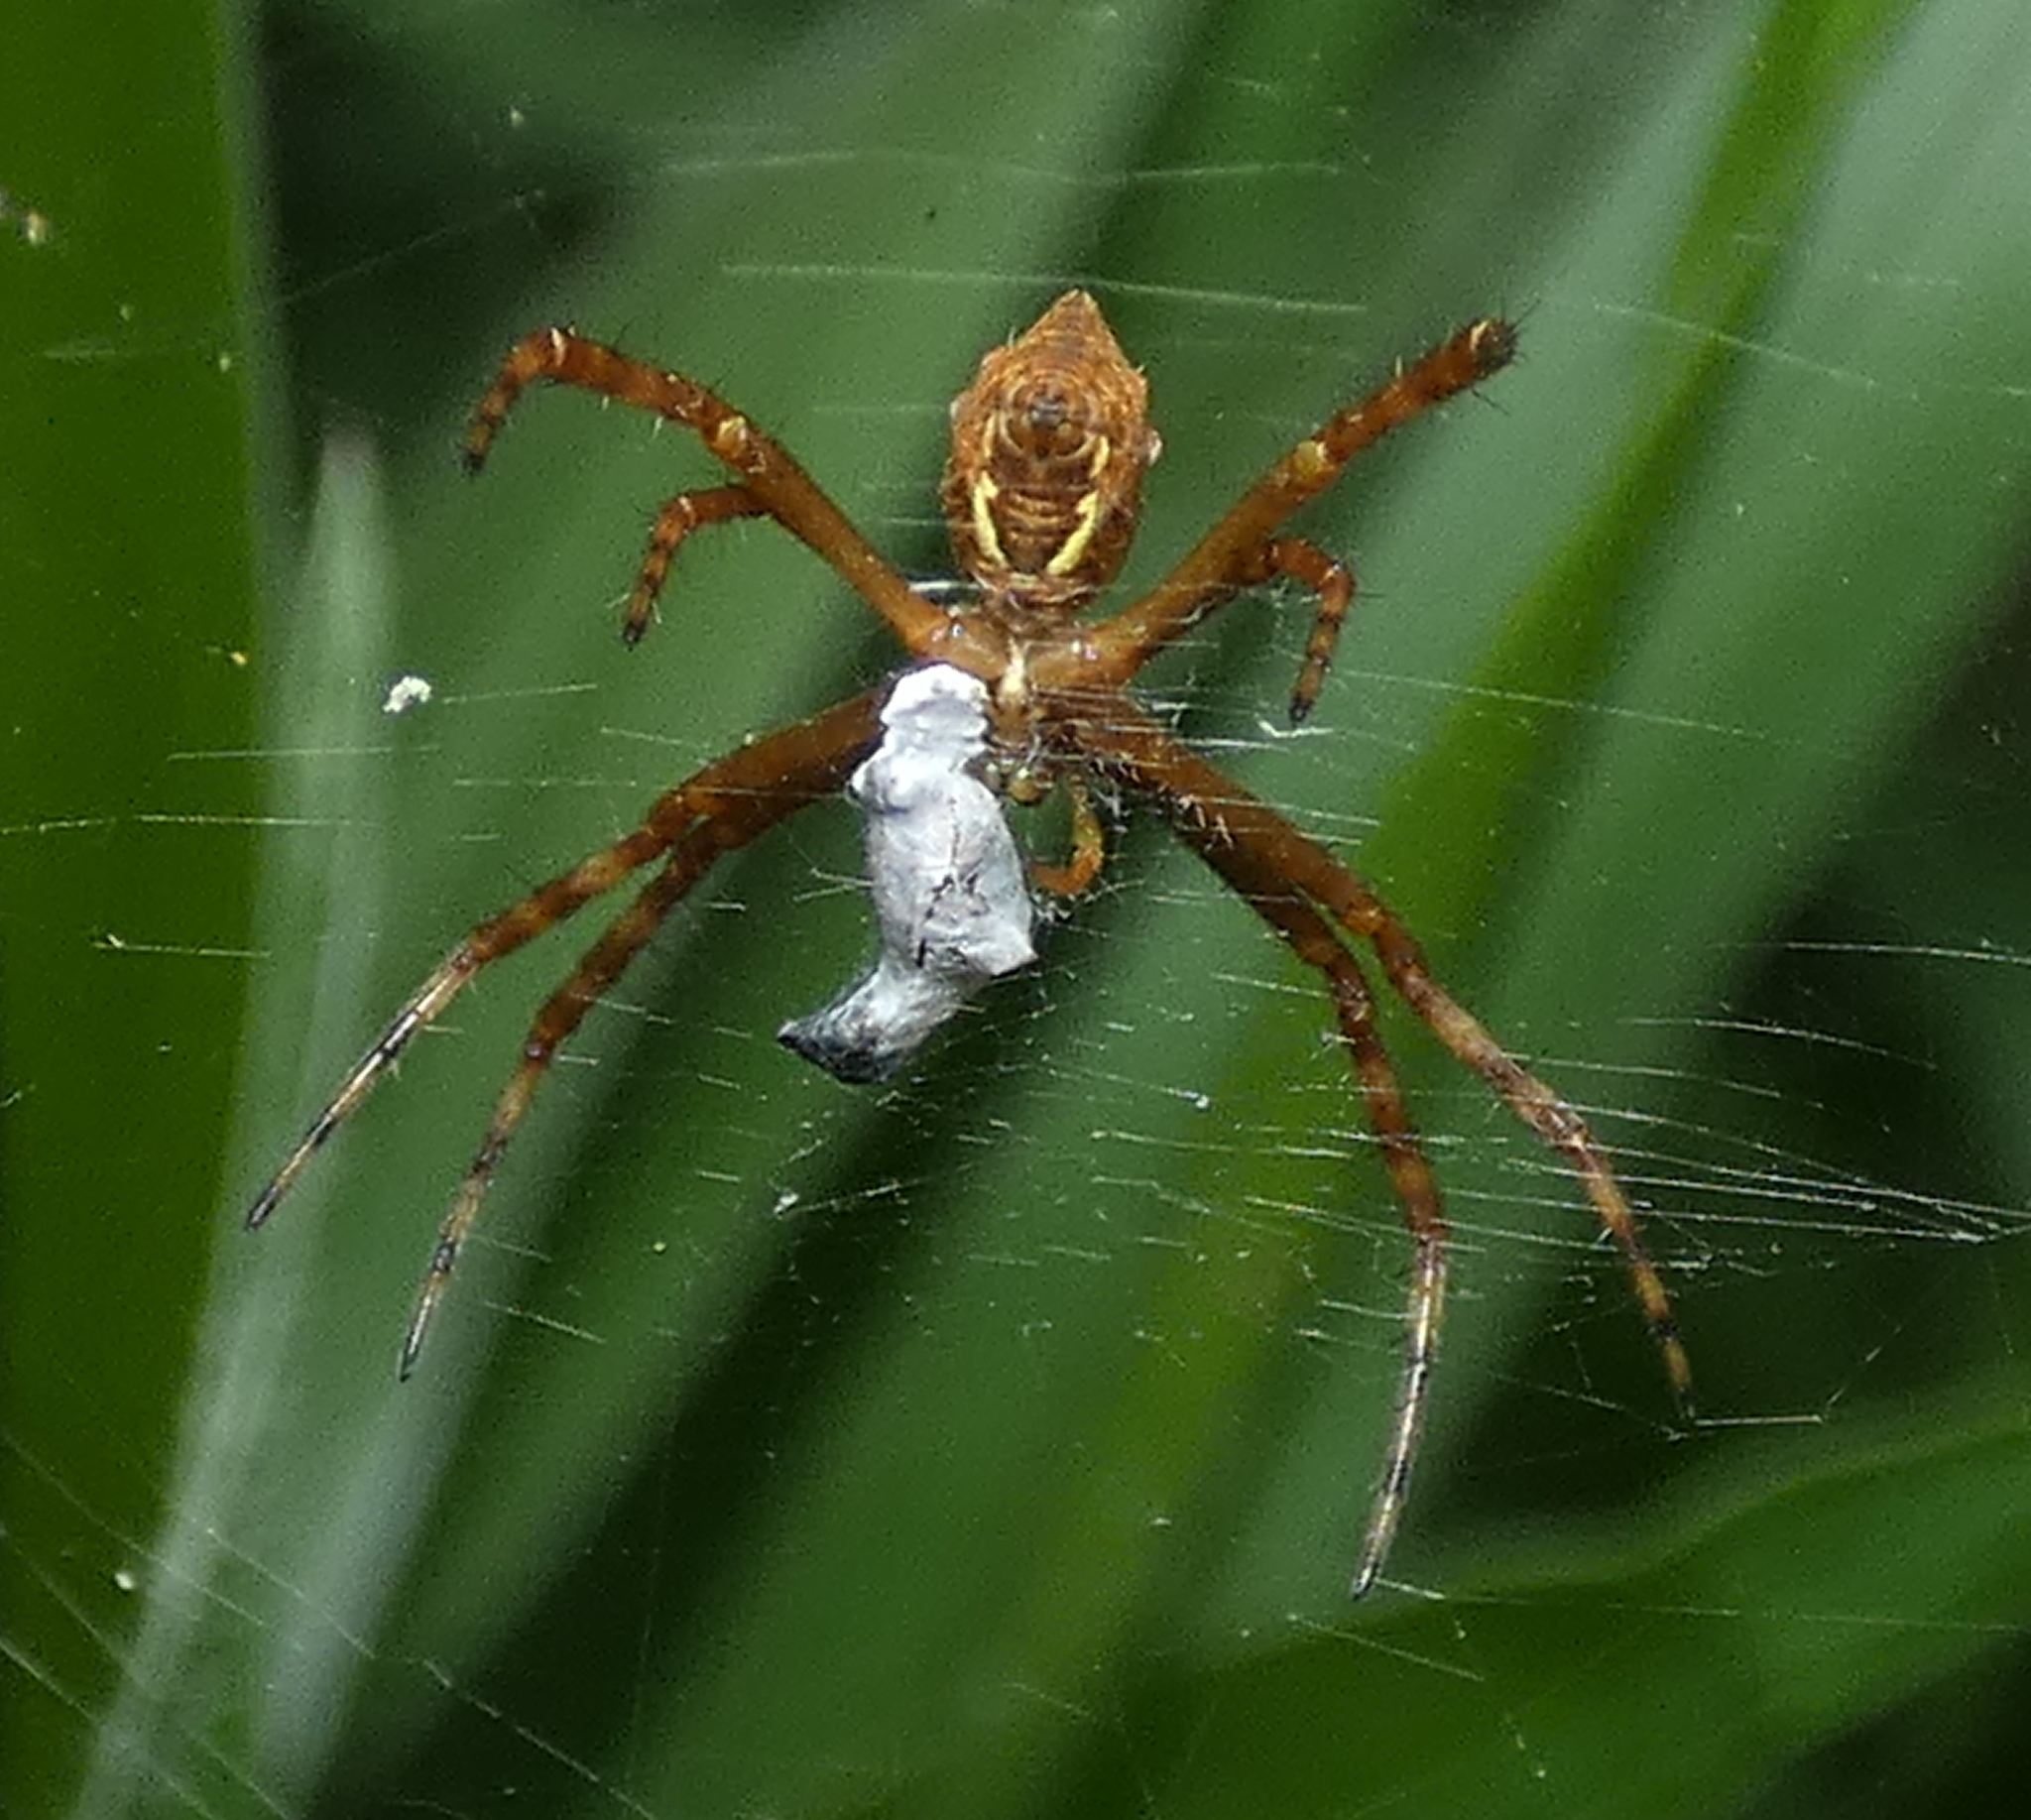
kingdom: Animalia
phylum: Arthropoda
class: Arachnida
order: Araneae
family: Araneidae
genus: Argiope
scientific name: Argiope argentata
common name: Orb weavers
